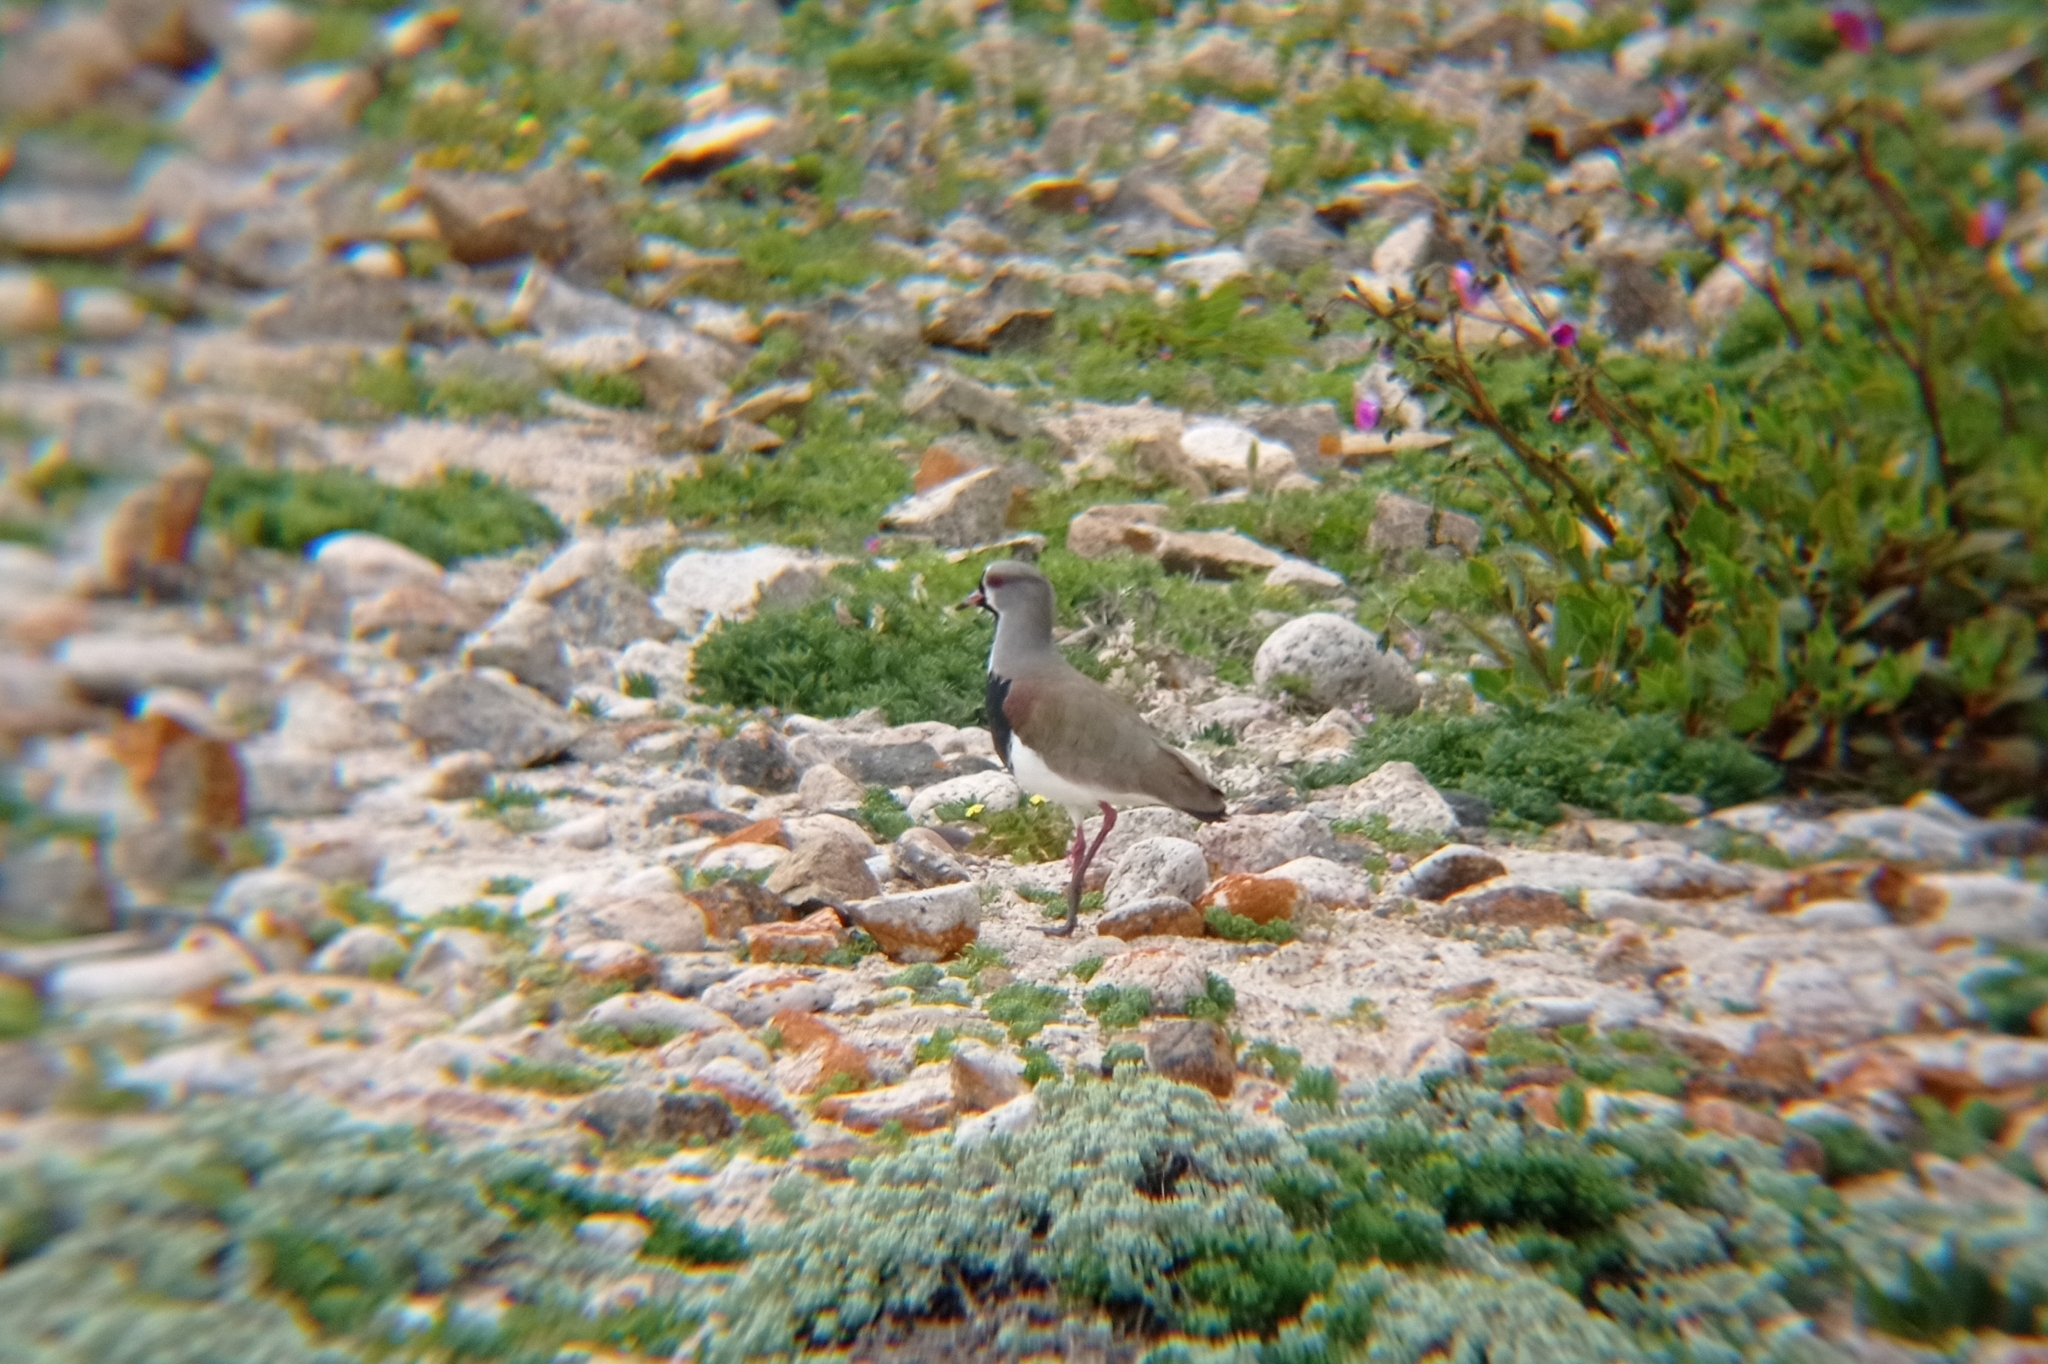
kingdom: Animalia
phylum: Chordata
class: Aves
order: Charadriiformes
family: Charadriidae
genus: Vanellus
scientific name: Vanellus chilensis
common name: Southern lapwing
